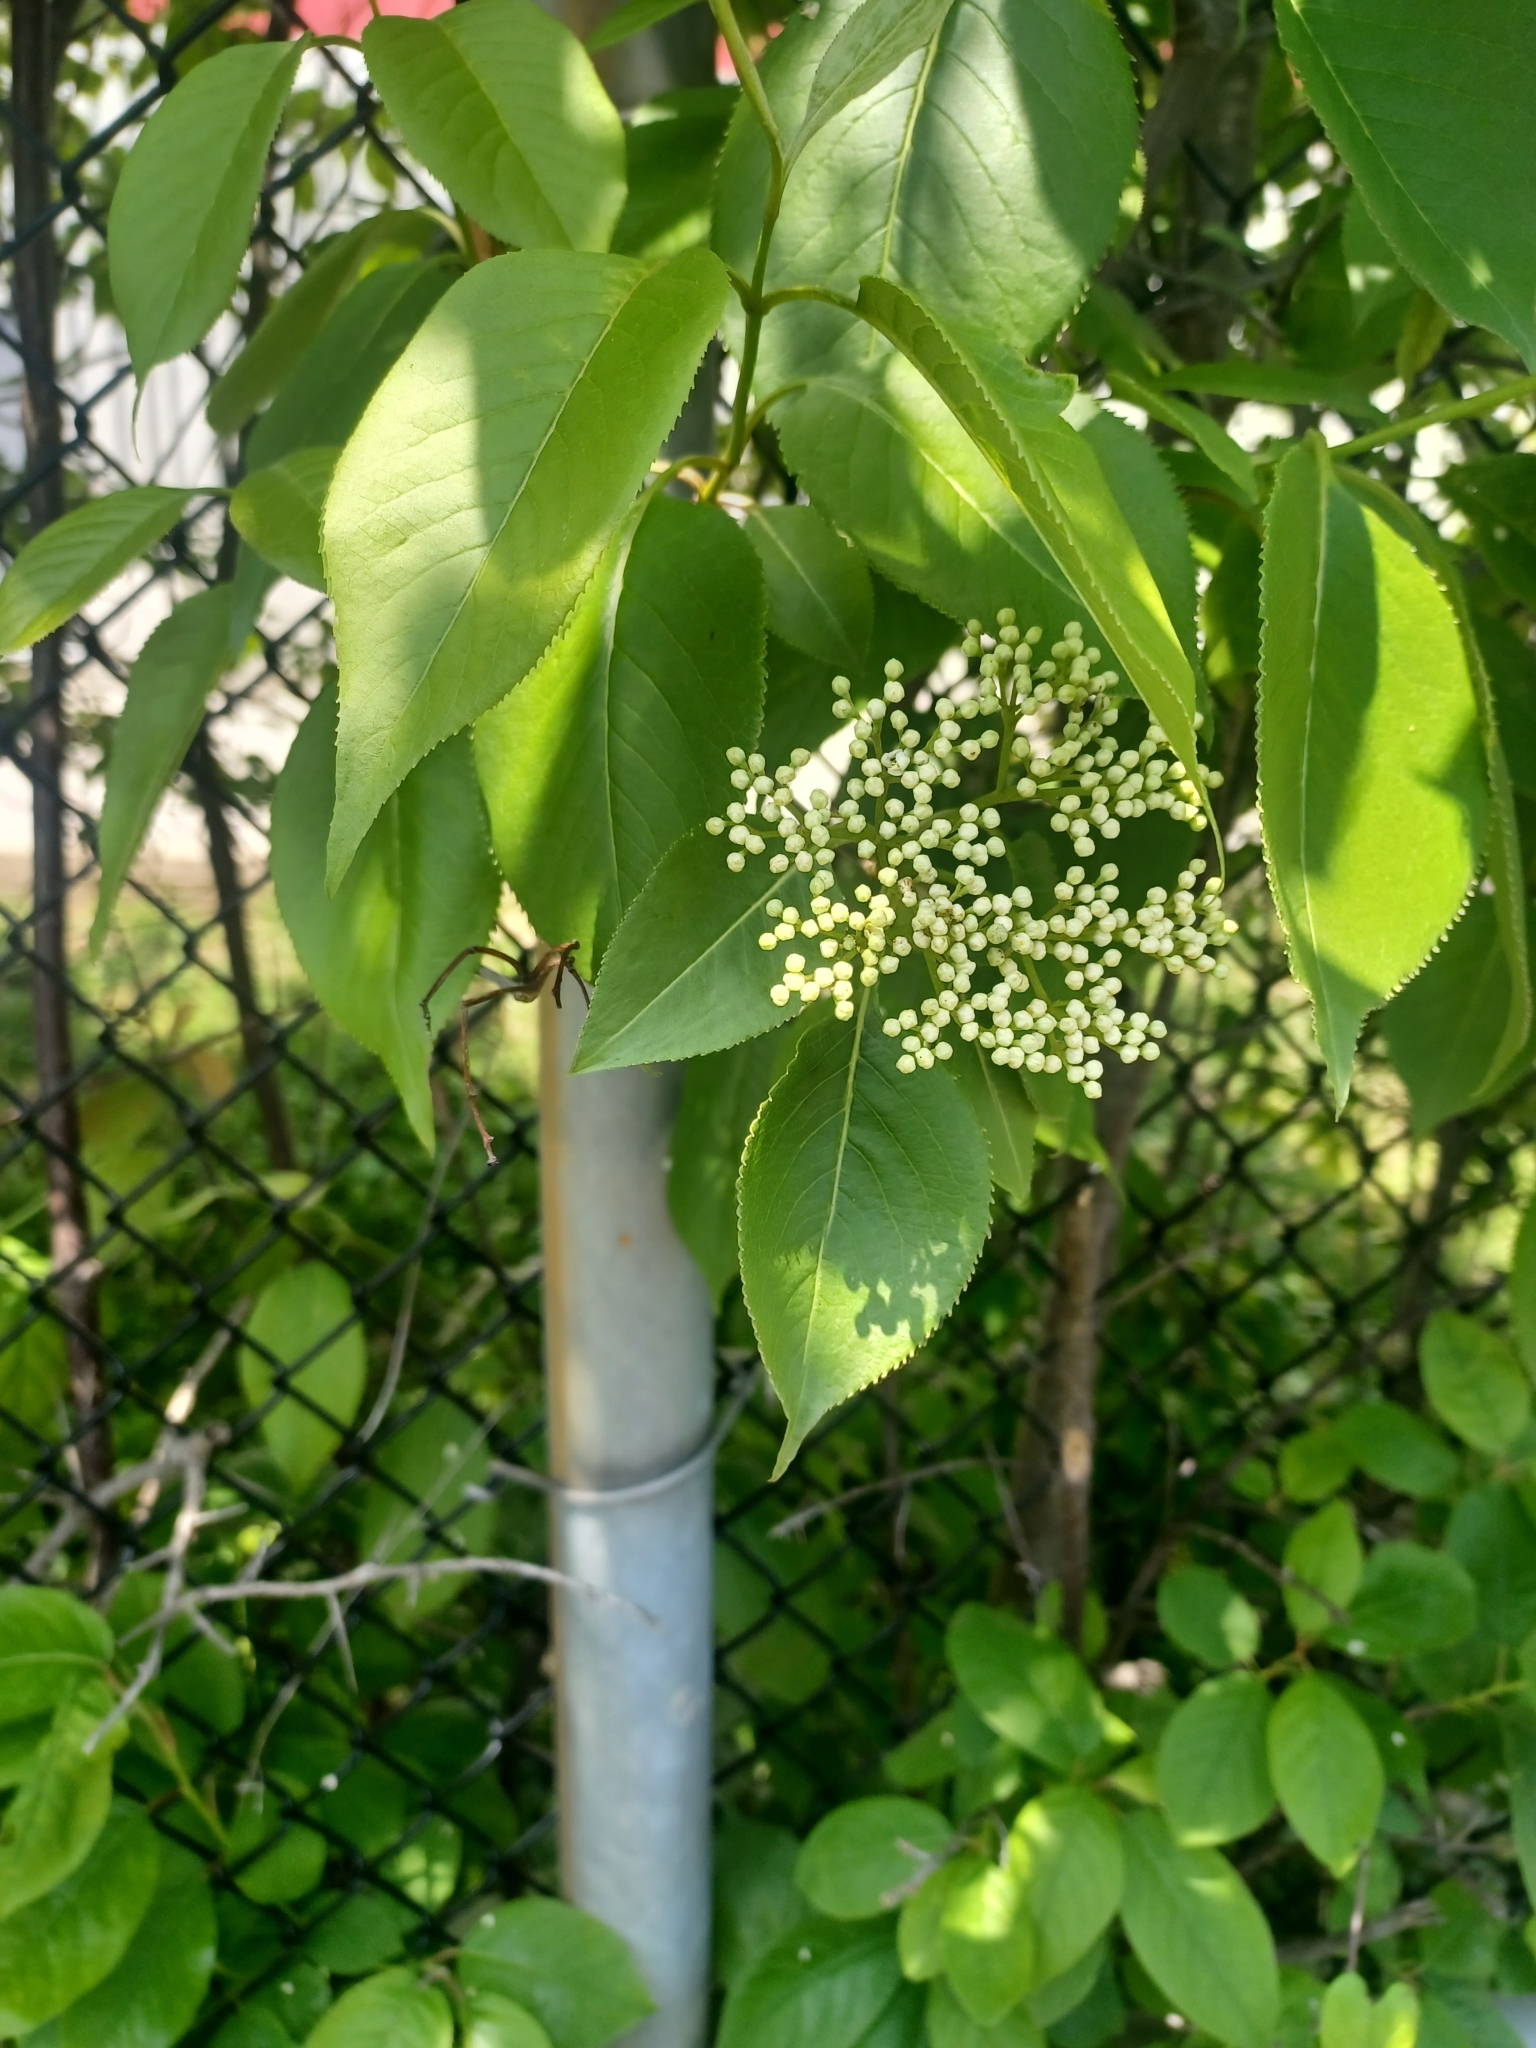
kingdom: Plantae
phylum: Tracheophyta
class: Magnoliopsida
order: Dipsacales
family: Viburnaceae
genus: Viburnum
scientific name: Viburnum lentago
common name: Black haw
